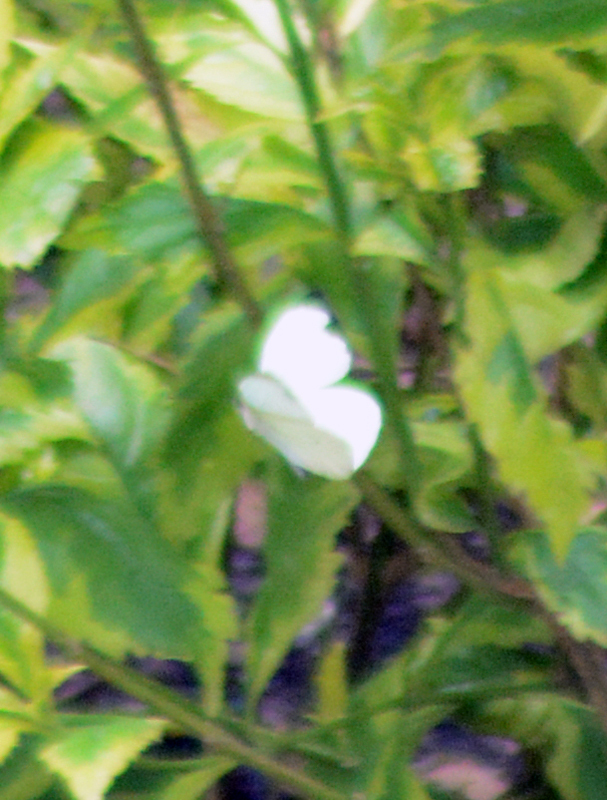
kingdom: Animalia
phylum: Arthropoda
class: Insecta
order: Lepidoptera
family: Pieridae
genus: Leptophobia
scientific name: Leptophobia aripa
